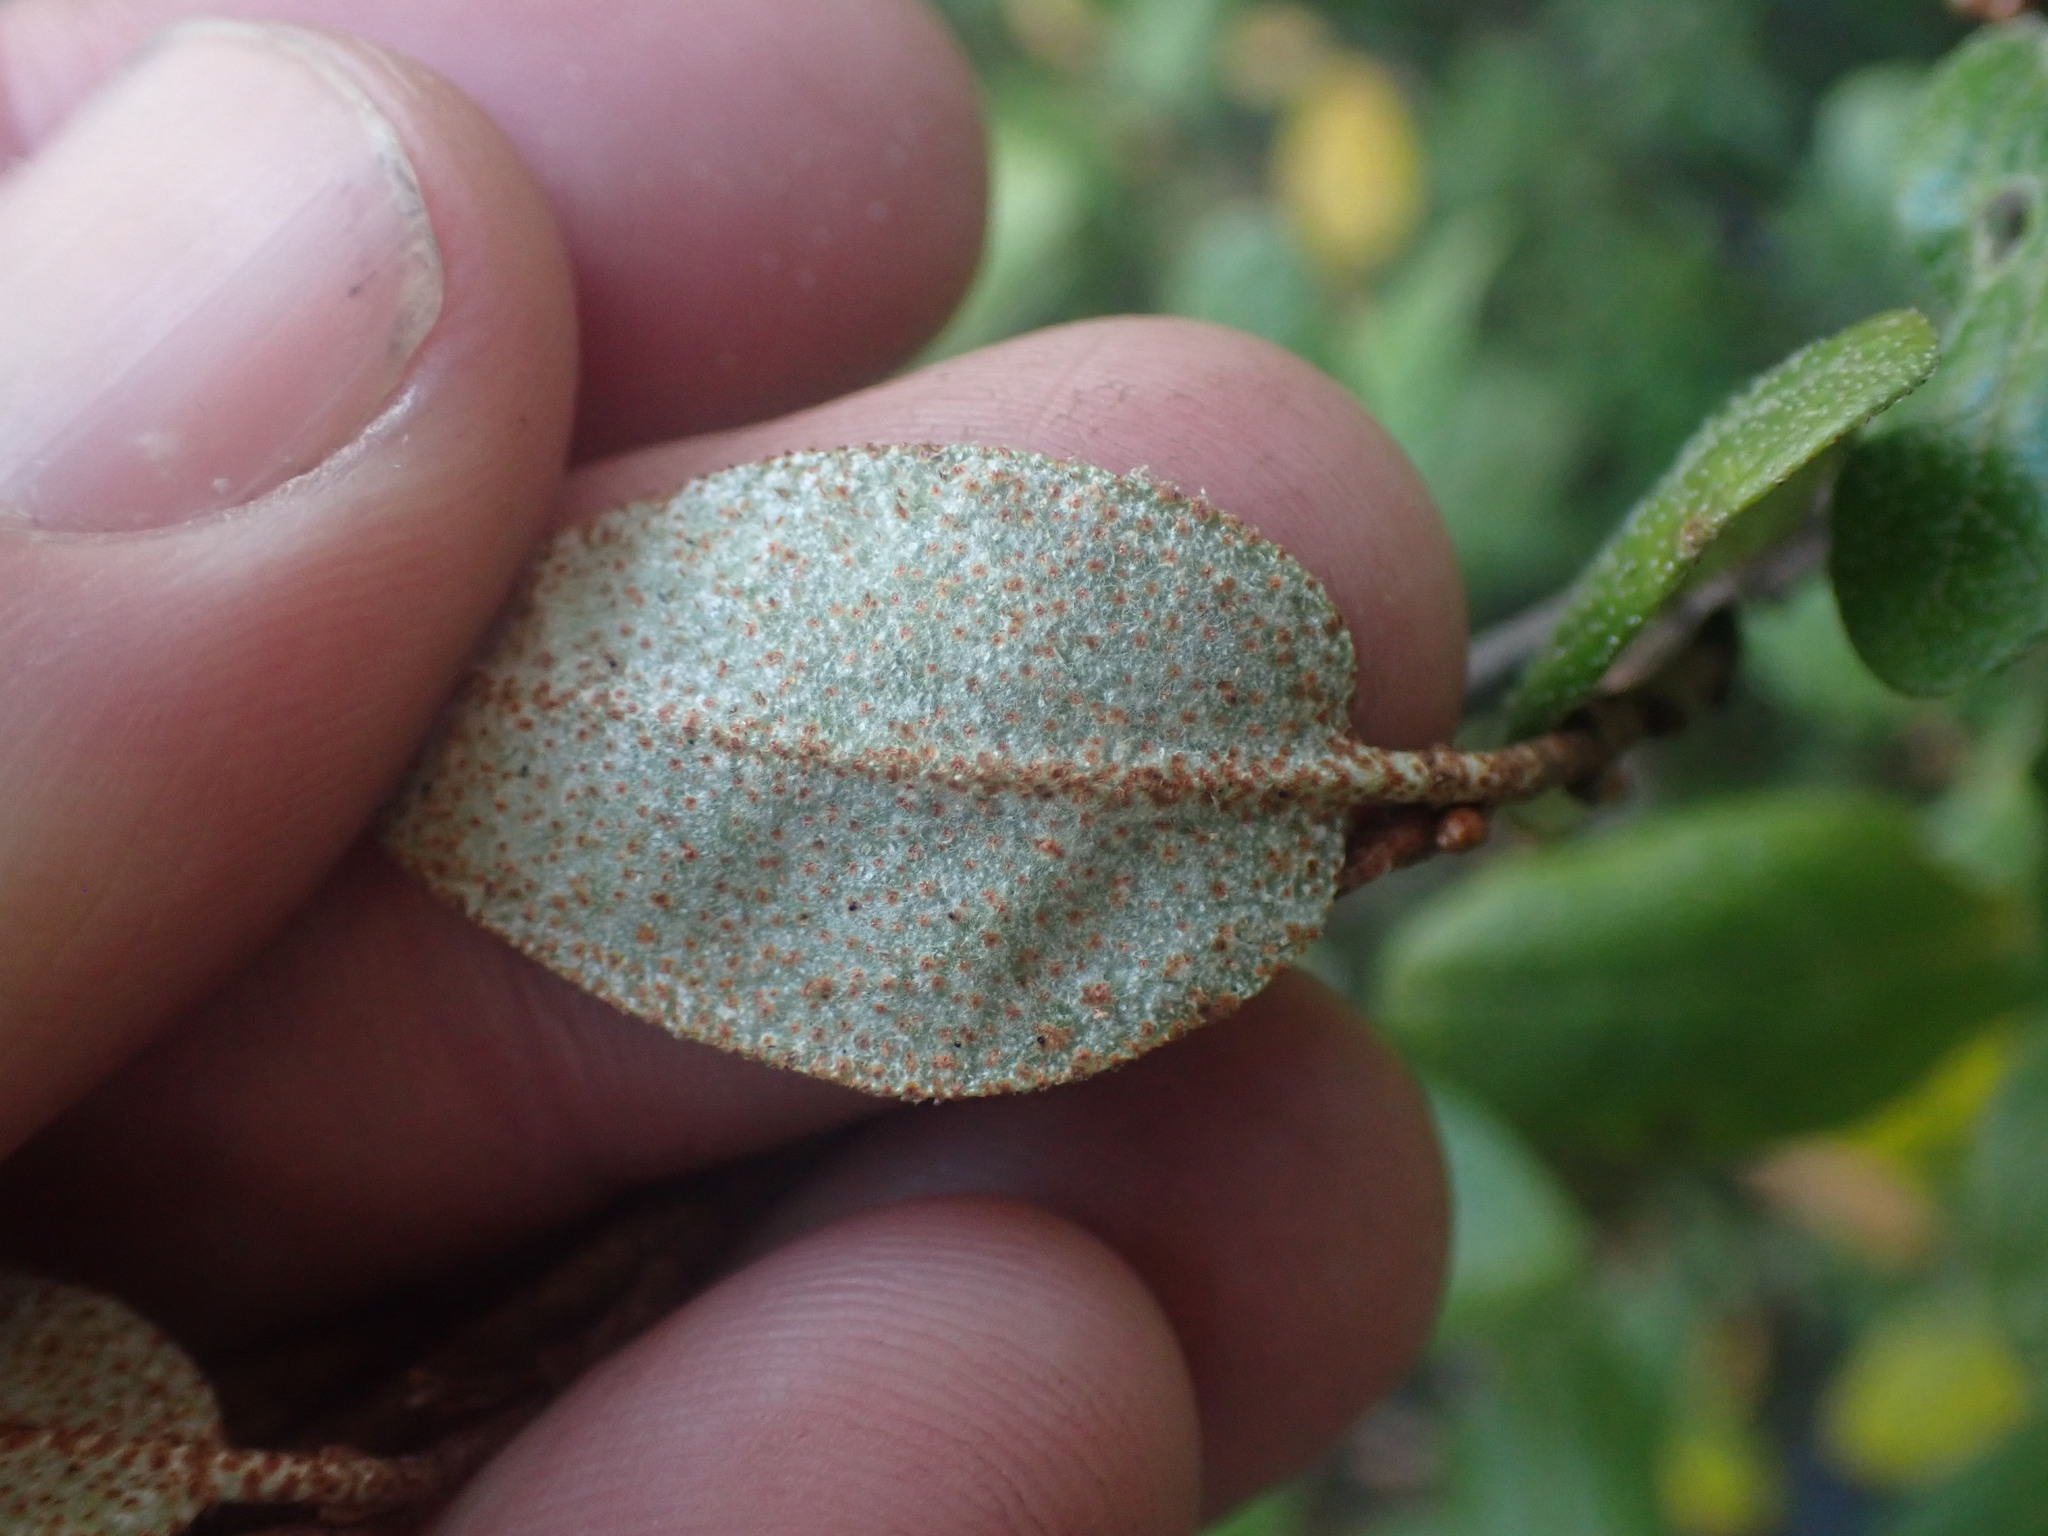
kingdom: Plantae
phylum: Tracheophyta
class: Magnoliopsida
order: Rosales
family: Elaeagnaceae
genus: Shepherdia
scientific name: Shepherdia canadensis
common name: Soapberry
